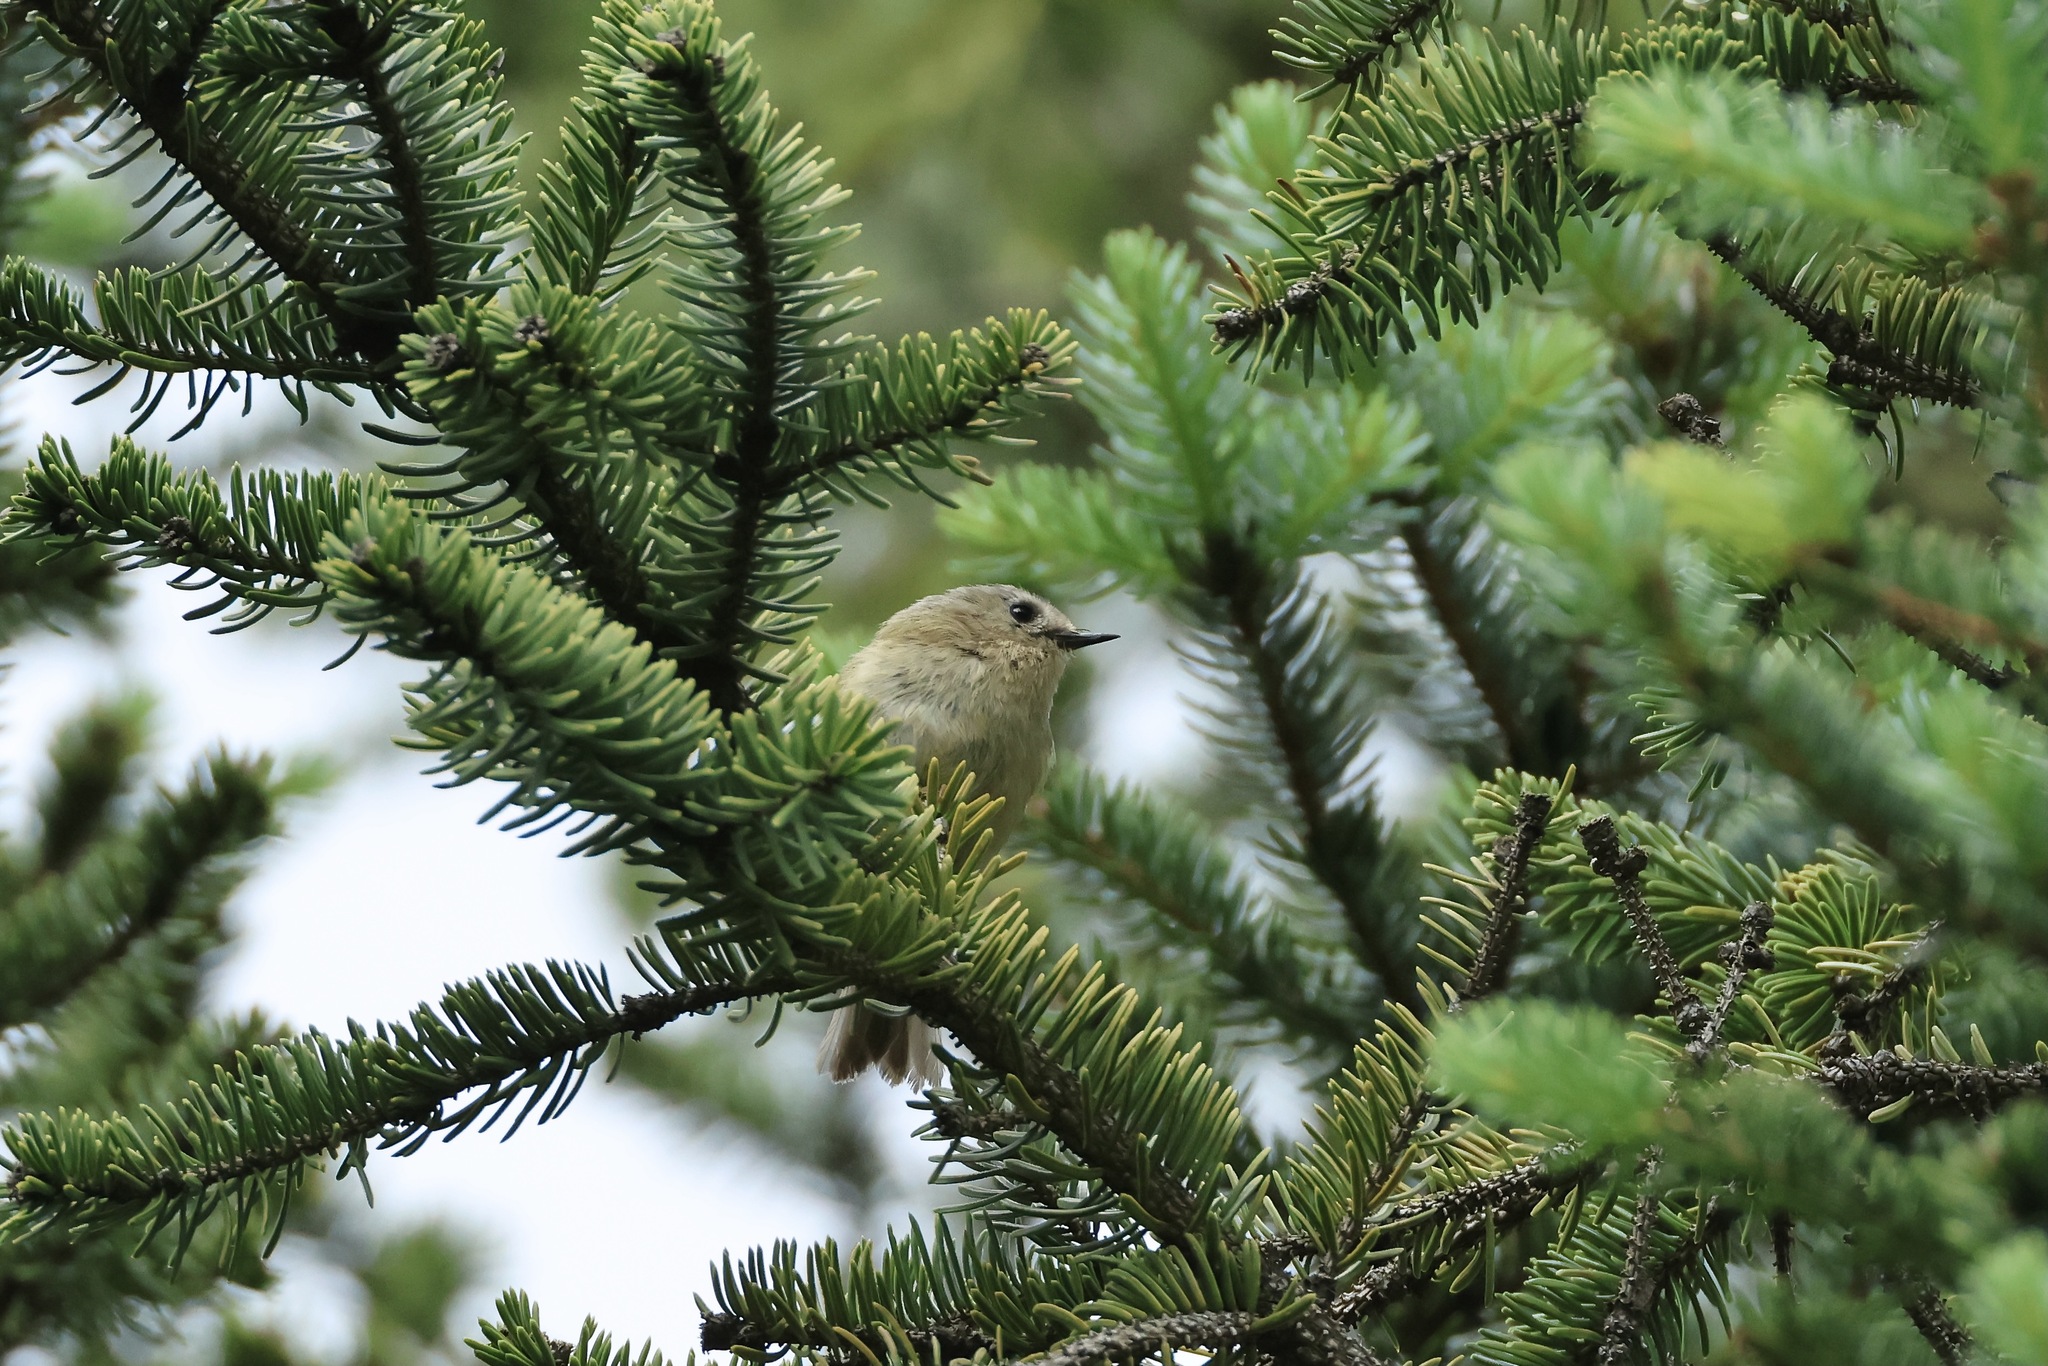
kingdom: Animalia
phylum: Chordata
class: Aves
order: Passeriformes
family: Regulidae
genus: Regulus
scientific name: Regulus regulus
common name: Goldcrest
